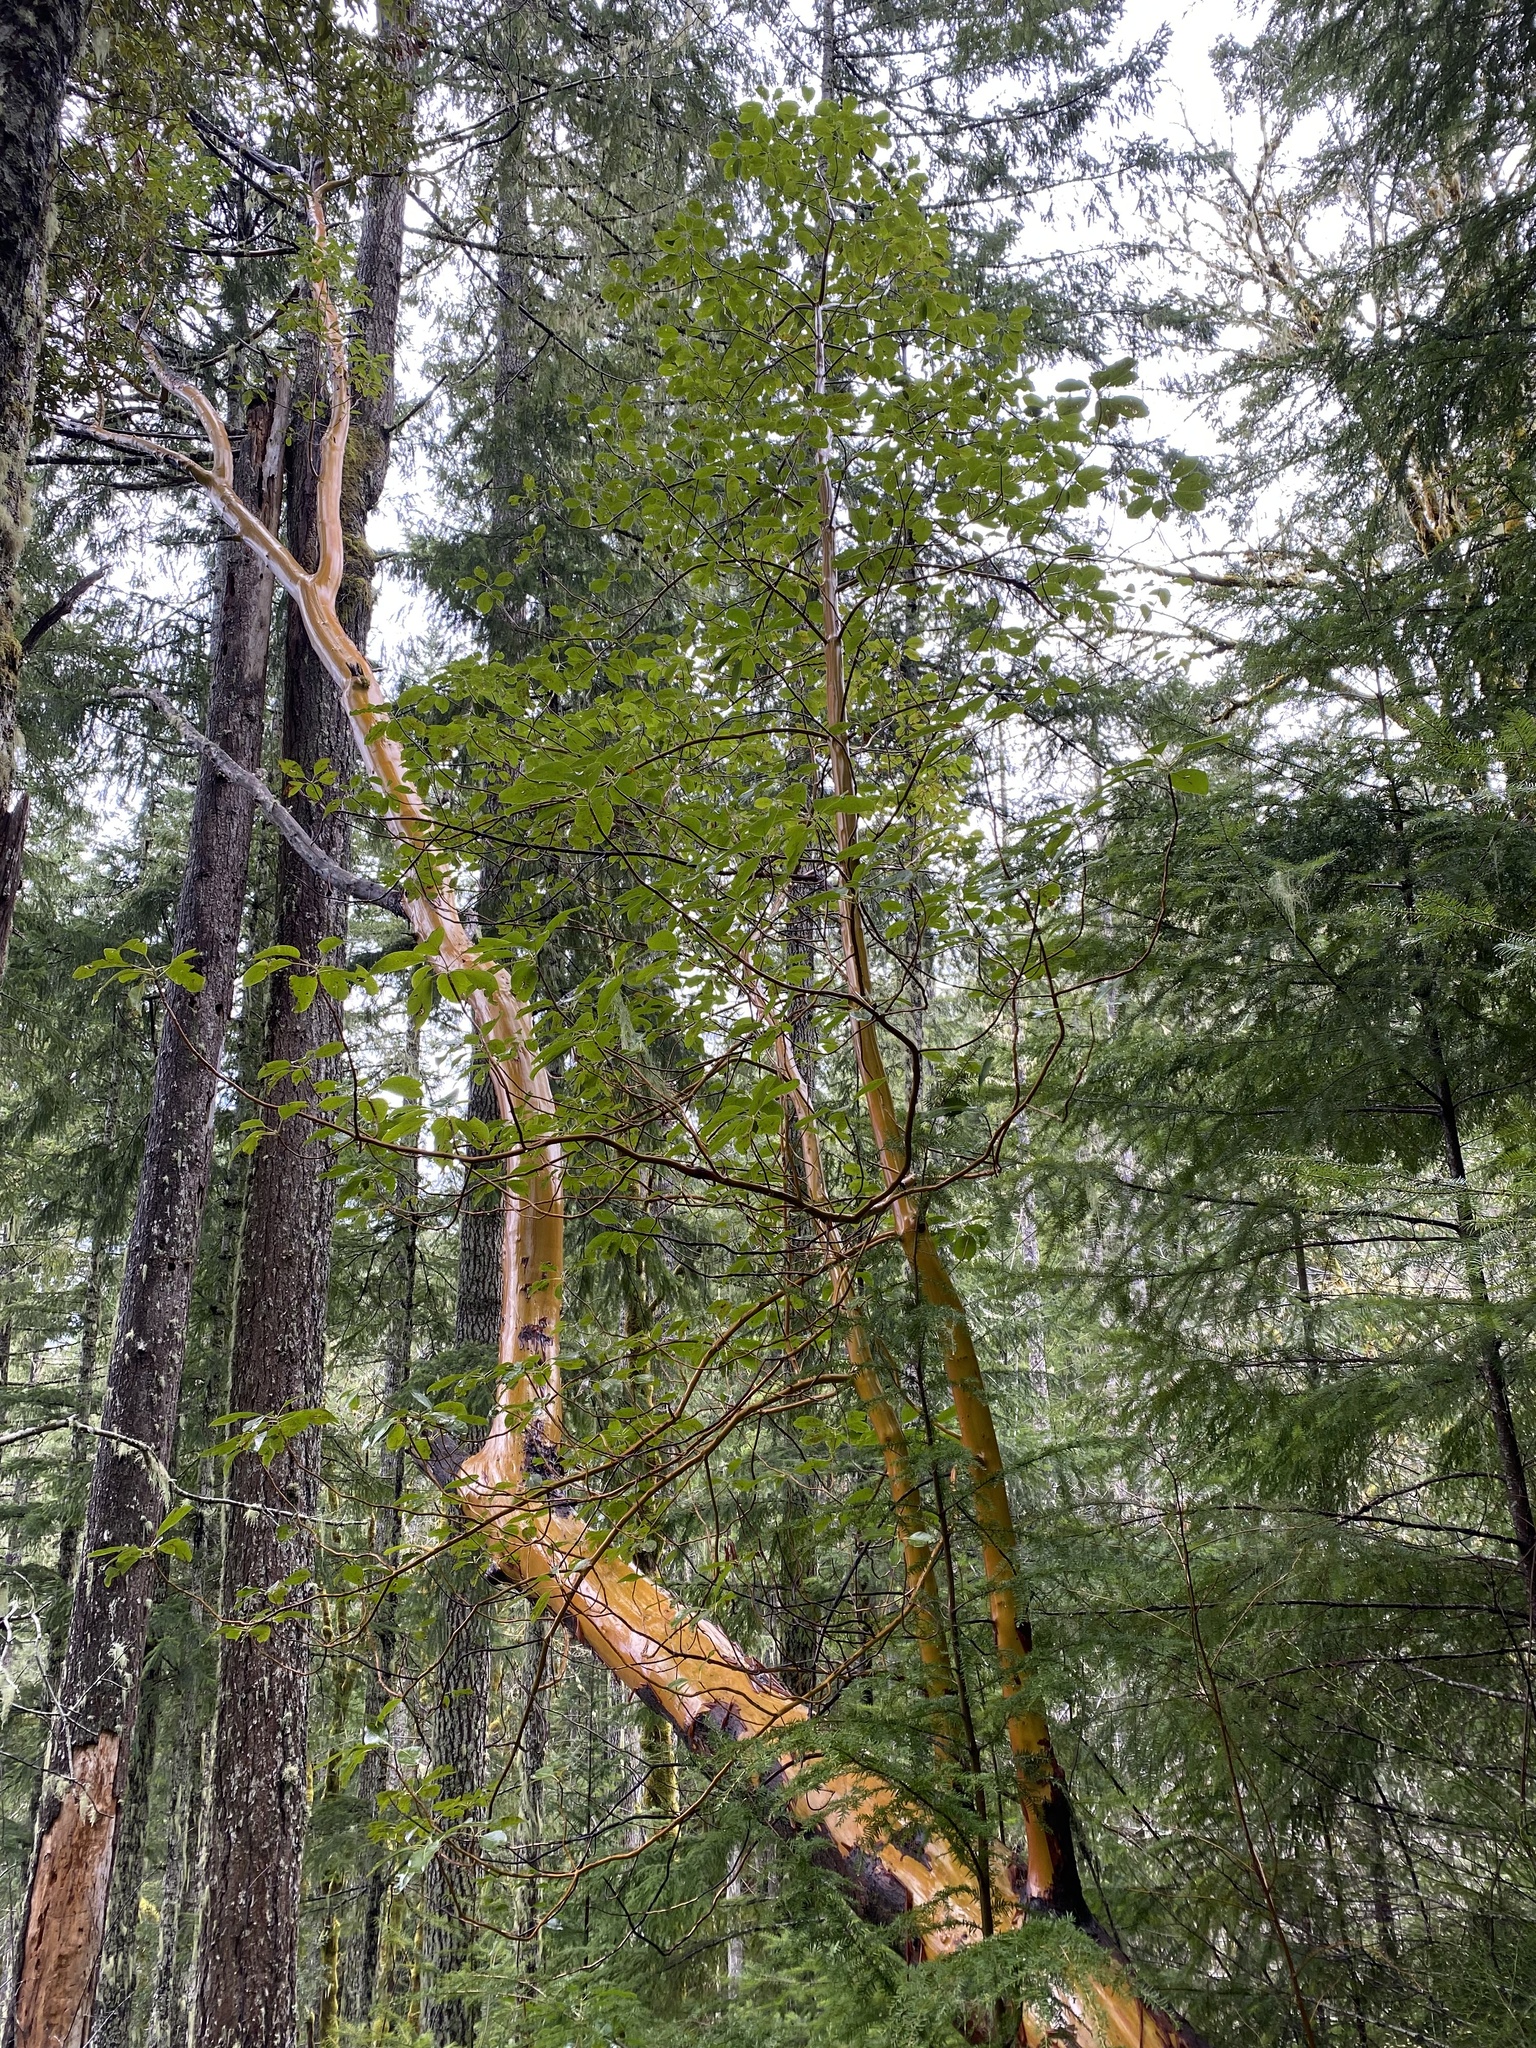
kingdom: Plantae
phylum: Tracheophyta
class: Magnoliopsida
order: Ericales
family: Ericaceae
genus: Arbutus
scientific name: Arbutus menziesii
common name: Pacific madrone
